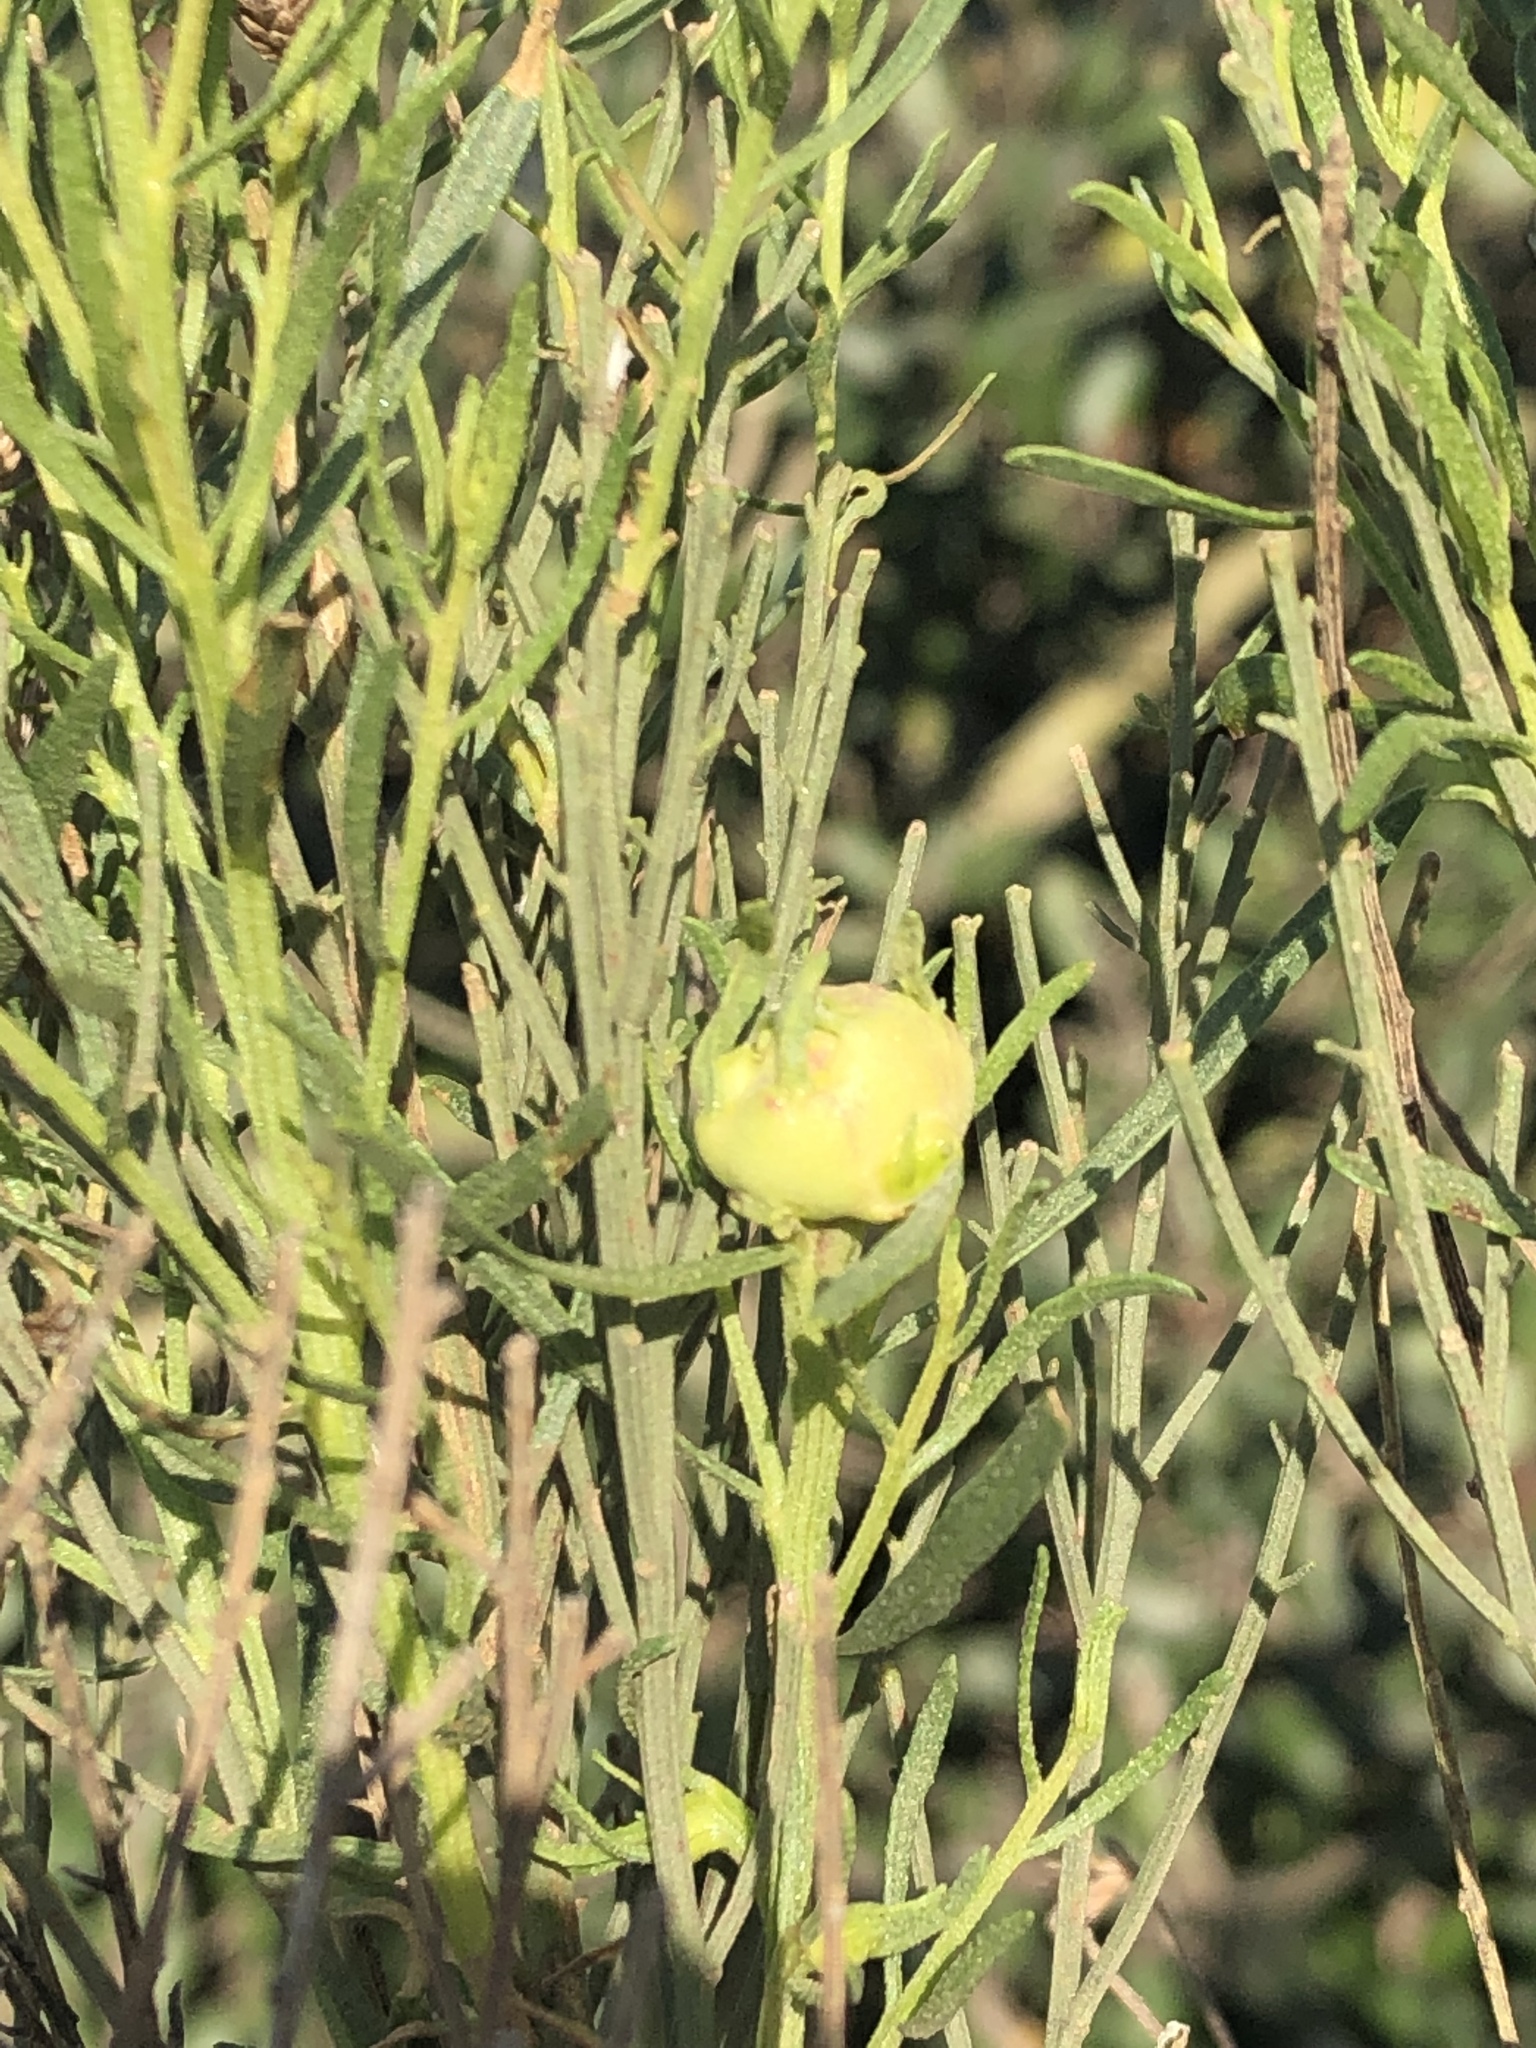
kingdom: Animalia
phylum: Arthropoda
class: Insecta
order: Diptera
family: Cecidomyiidae
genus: Rhopalomyia
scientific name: Rhopalomyia californica
